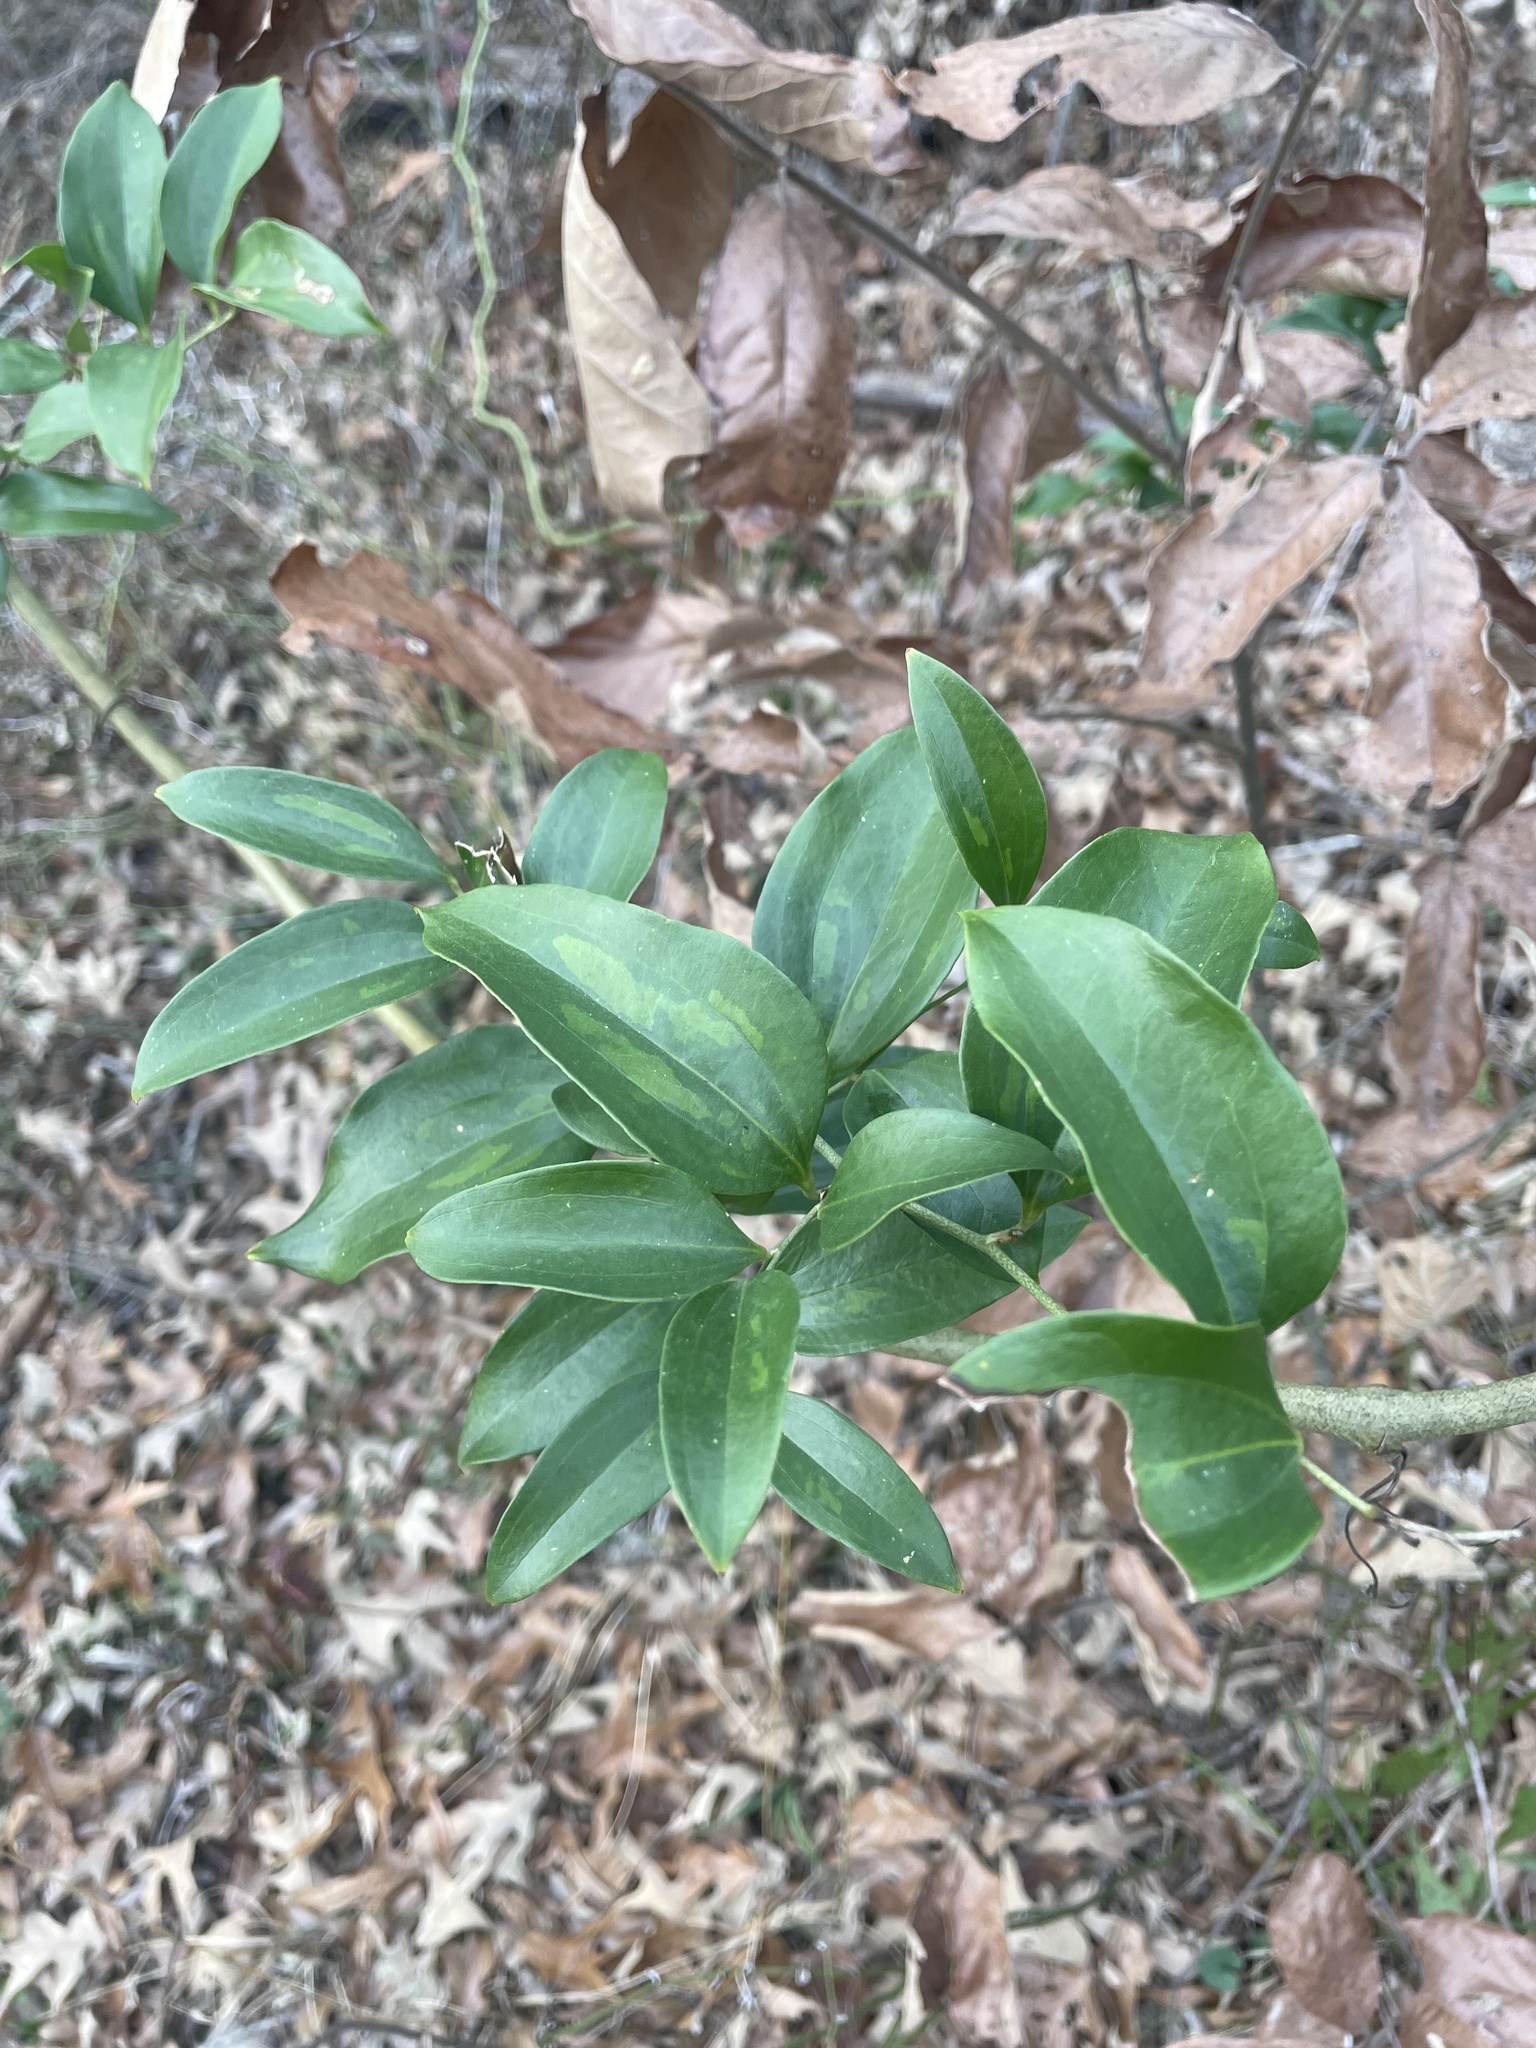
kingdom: Plantae
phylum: Tracheophyta
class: Liliopsida
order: Liliales
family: Smilacaceae
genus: Smilax
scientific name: Smilax maritima
